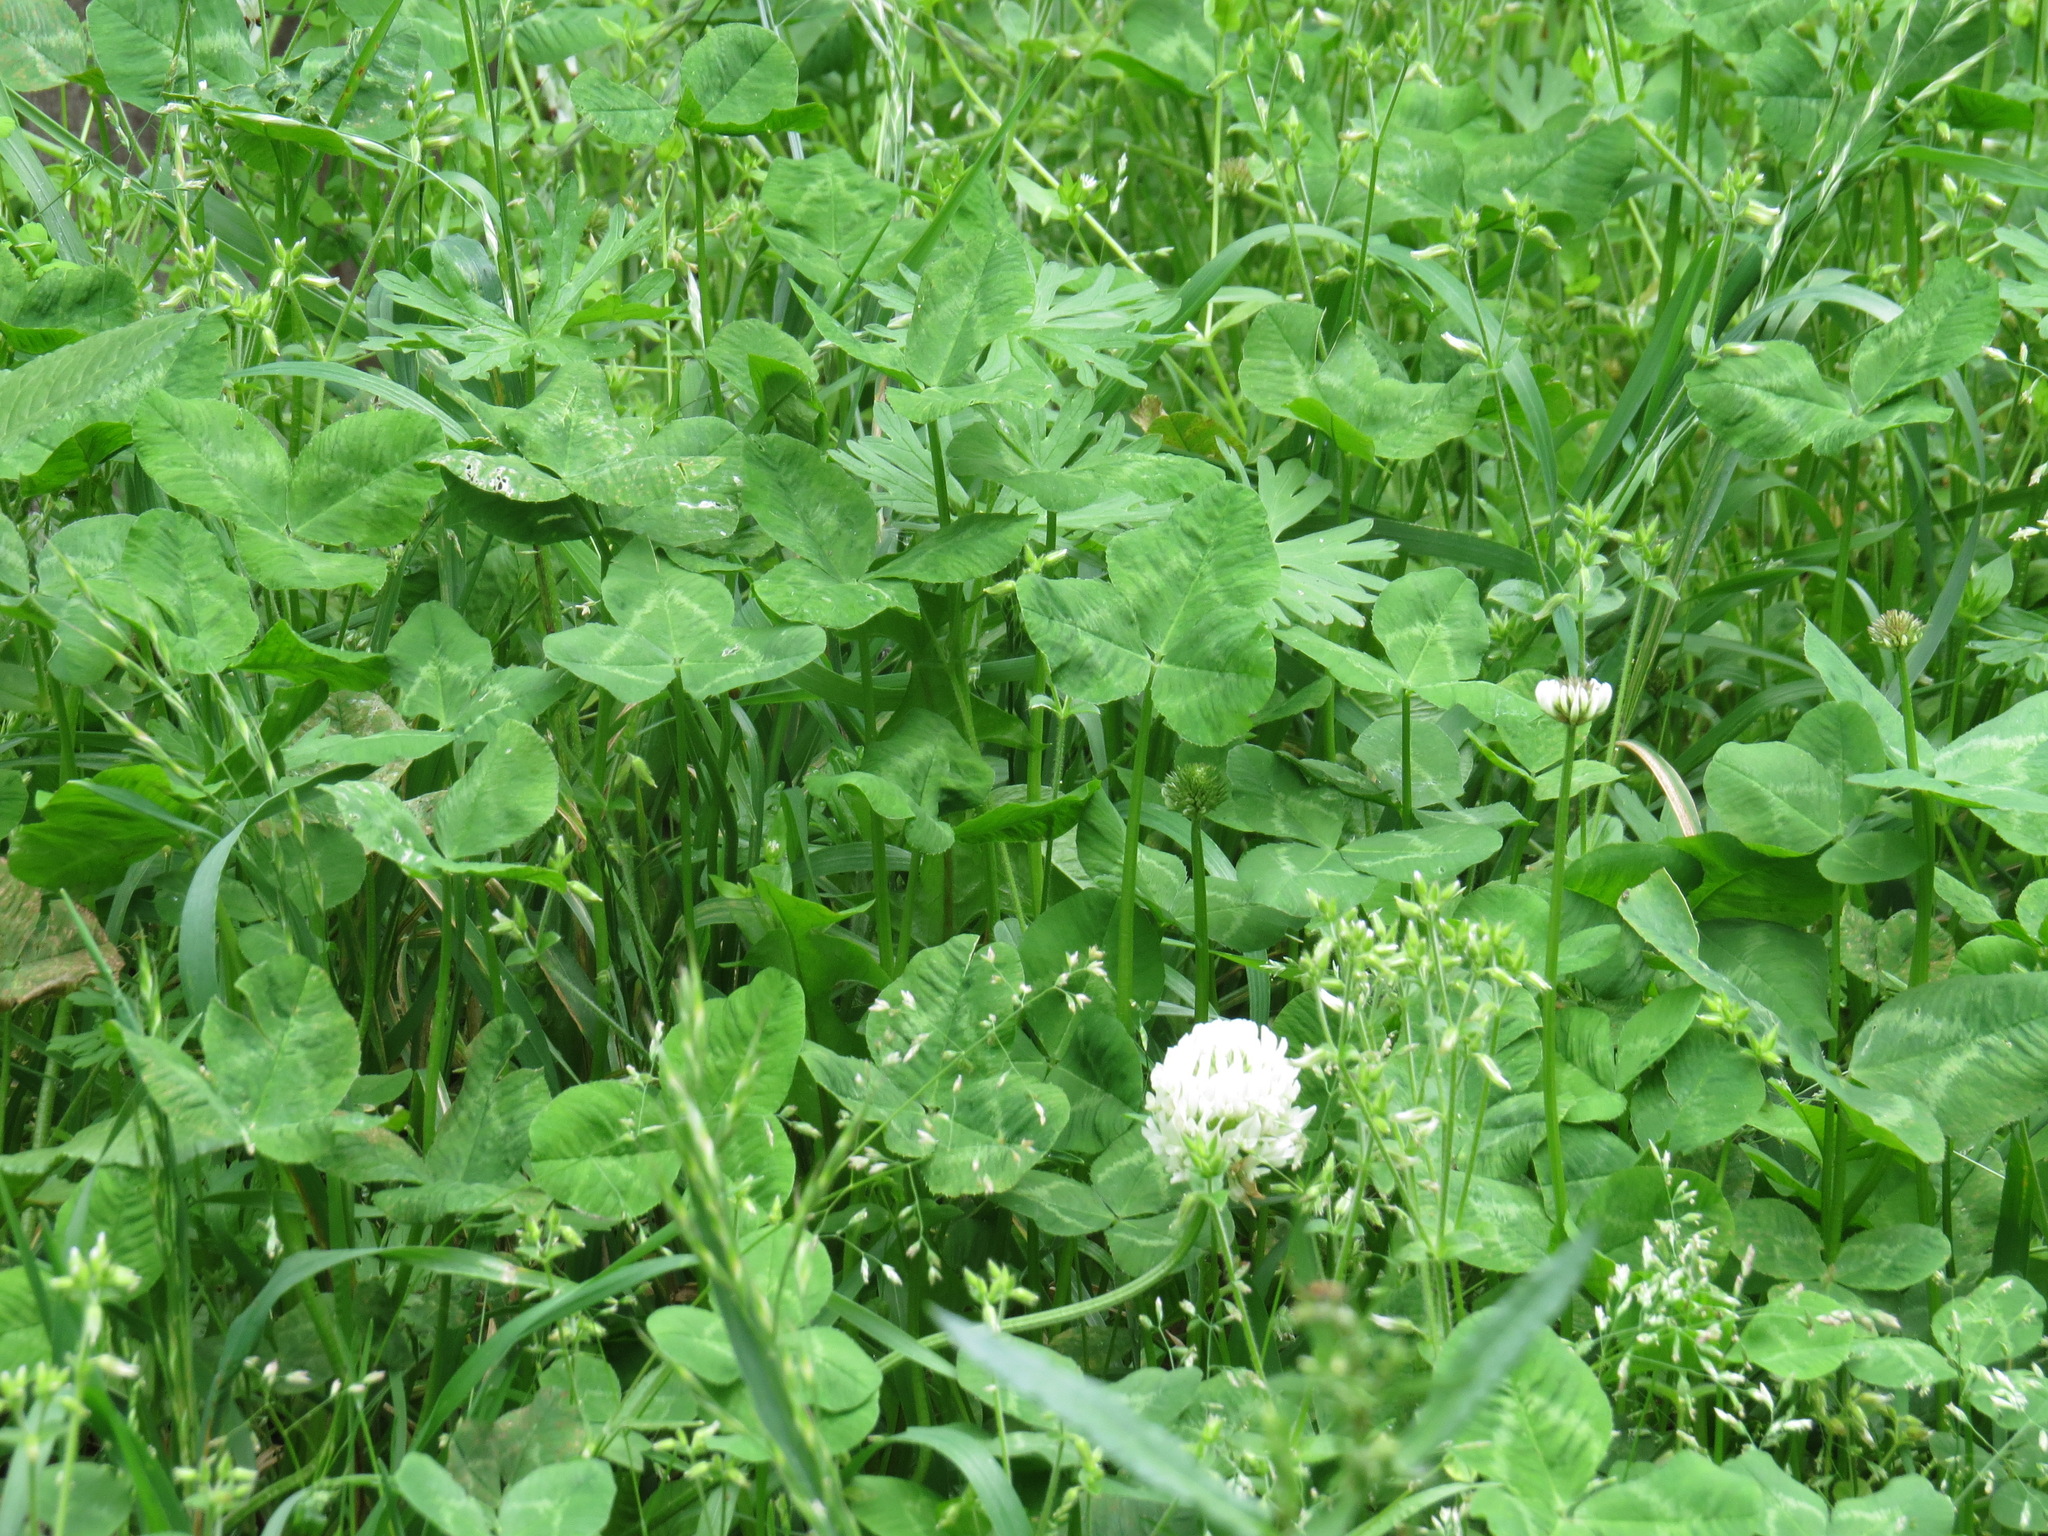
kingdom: Plantae
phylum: Tracheophyta
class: Magnoliopsida
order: Fabales
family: Fabaceae
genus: Trifolium
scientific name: Trifolium repens
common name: White clover
